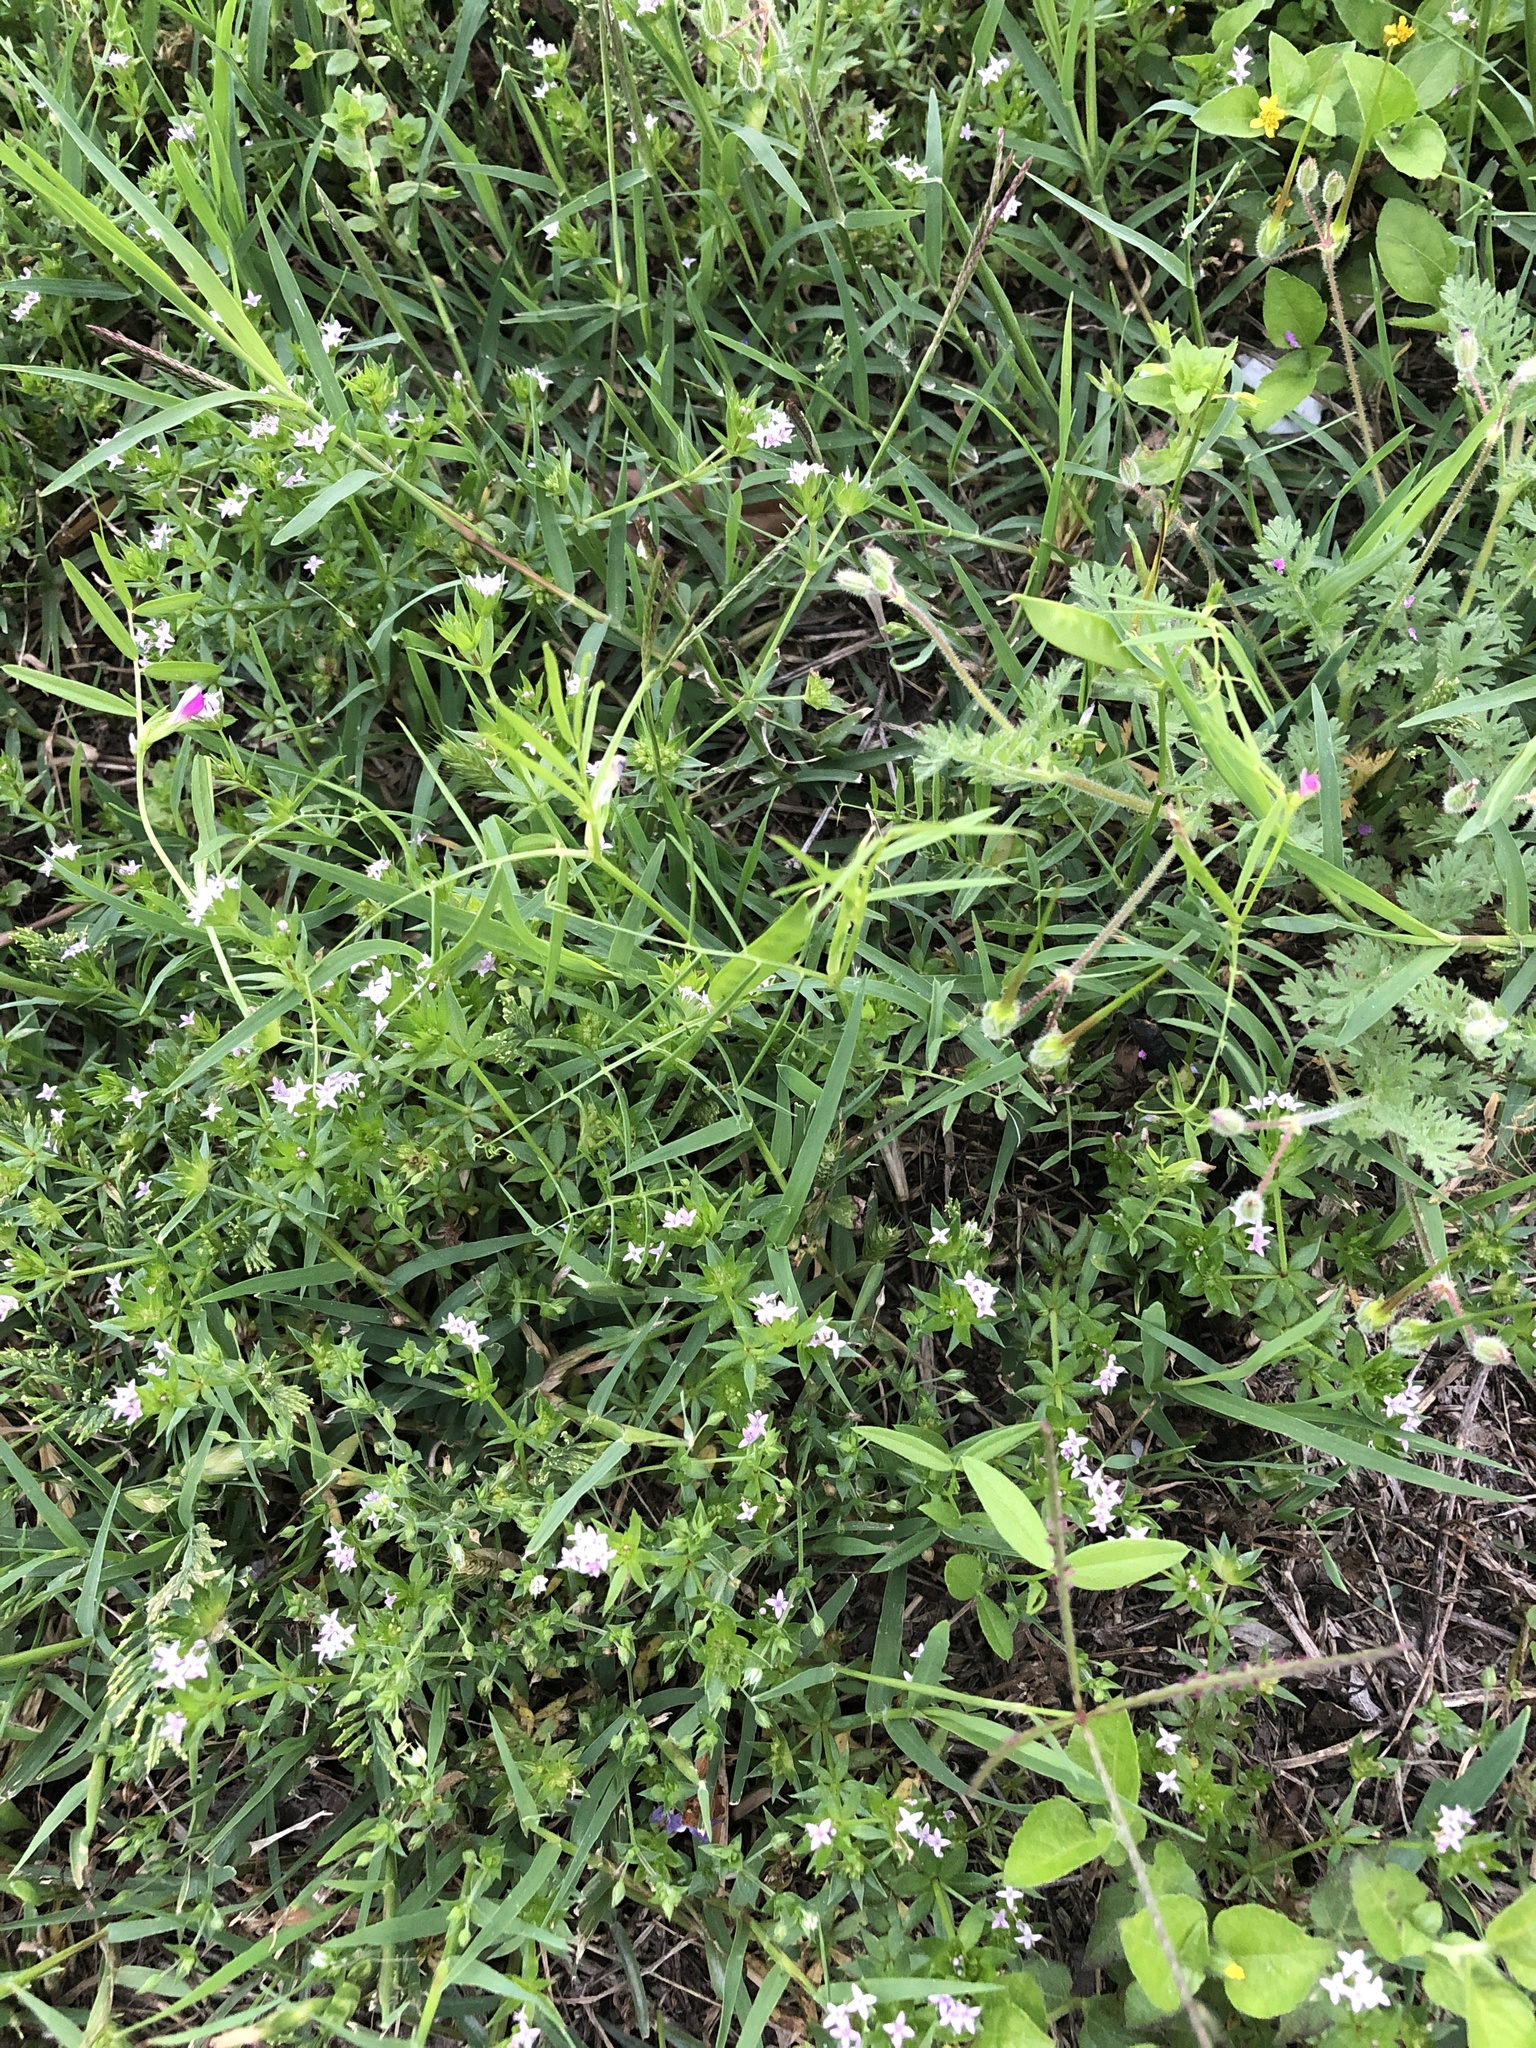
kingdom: Plantae
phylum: Tracheophyta
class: Magnoliopsida
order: Fabales
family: Fabaceae
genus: Vicia
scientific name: Vicia sativa
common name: Garden vetch
